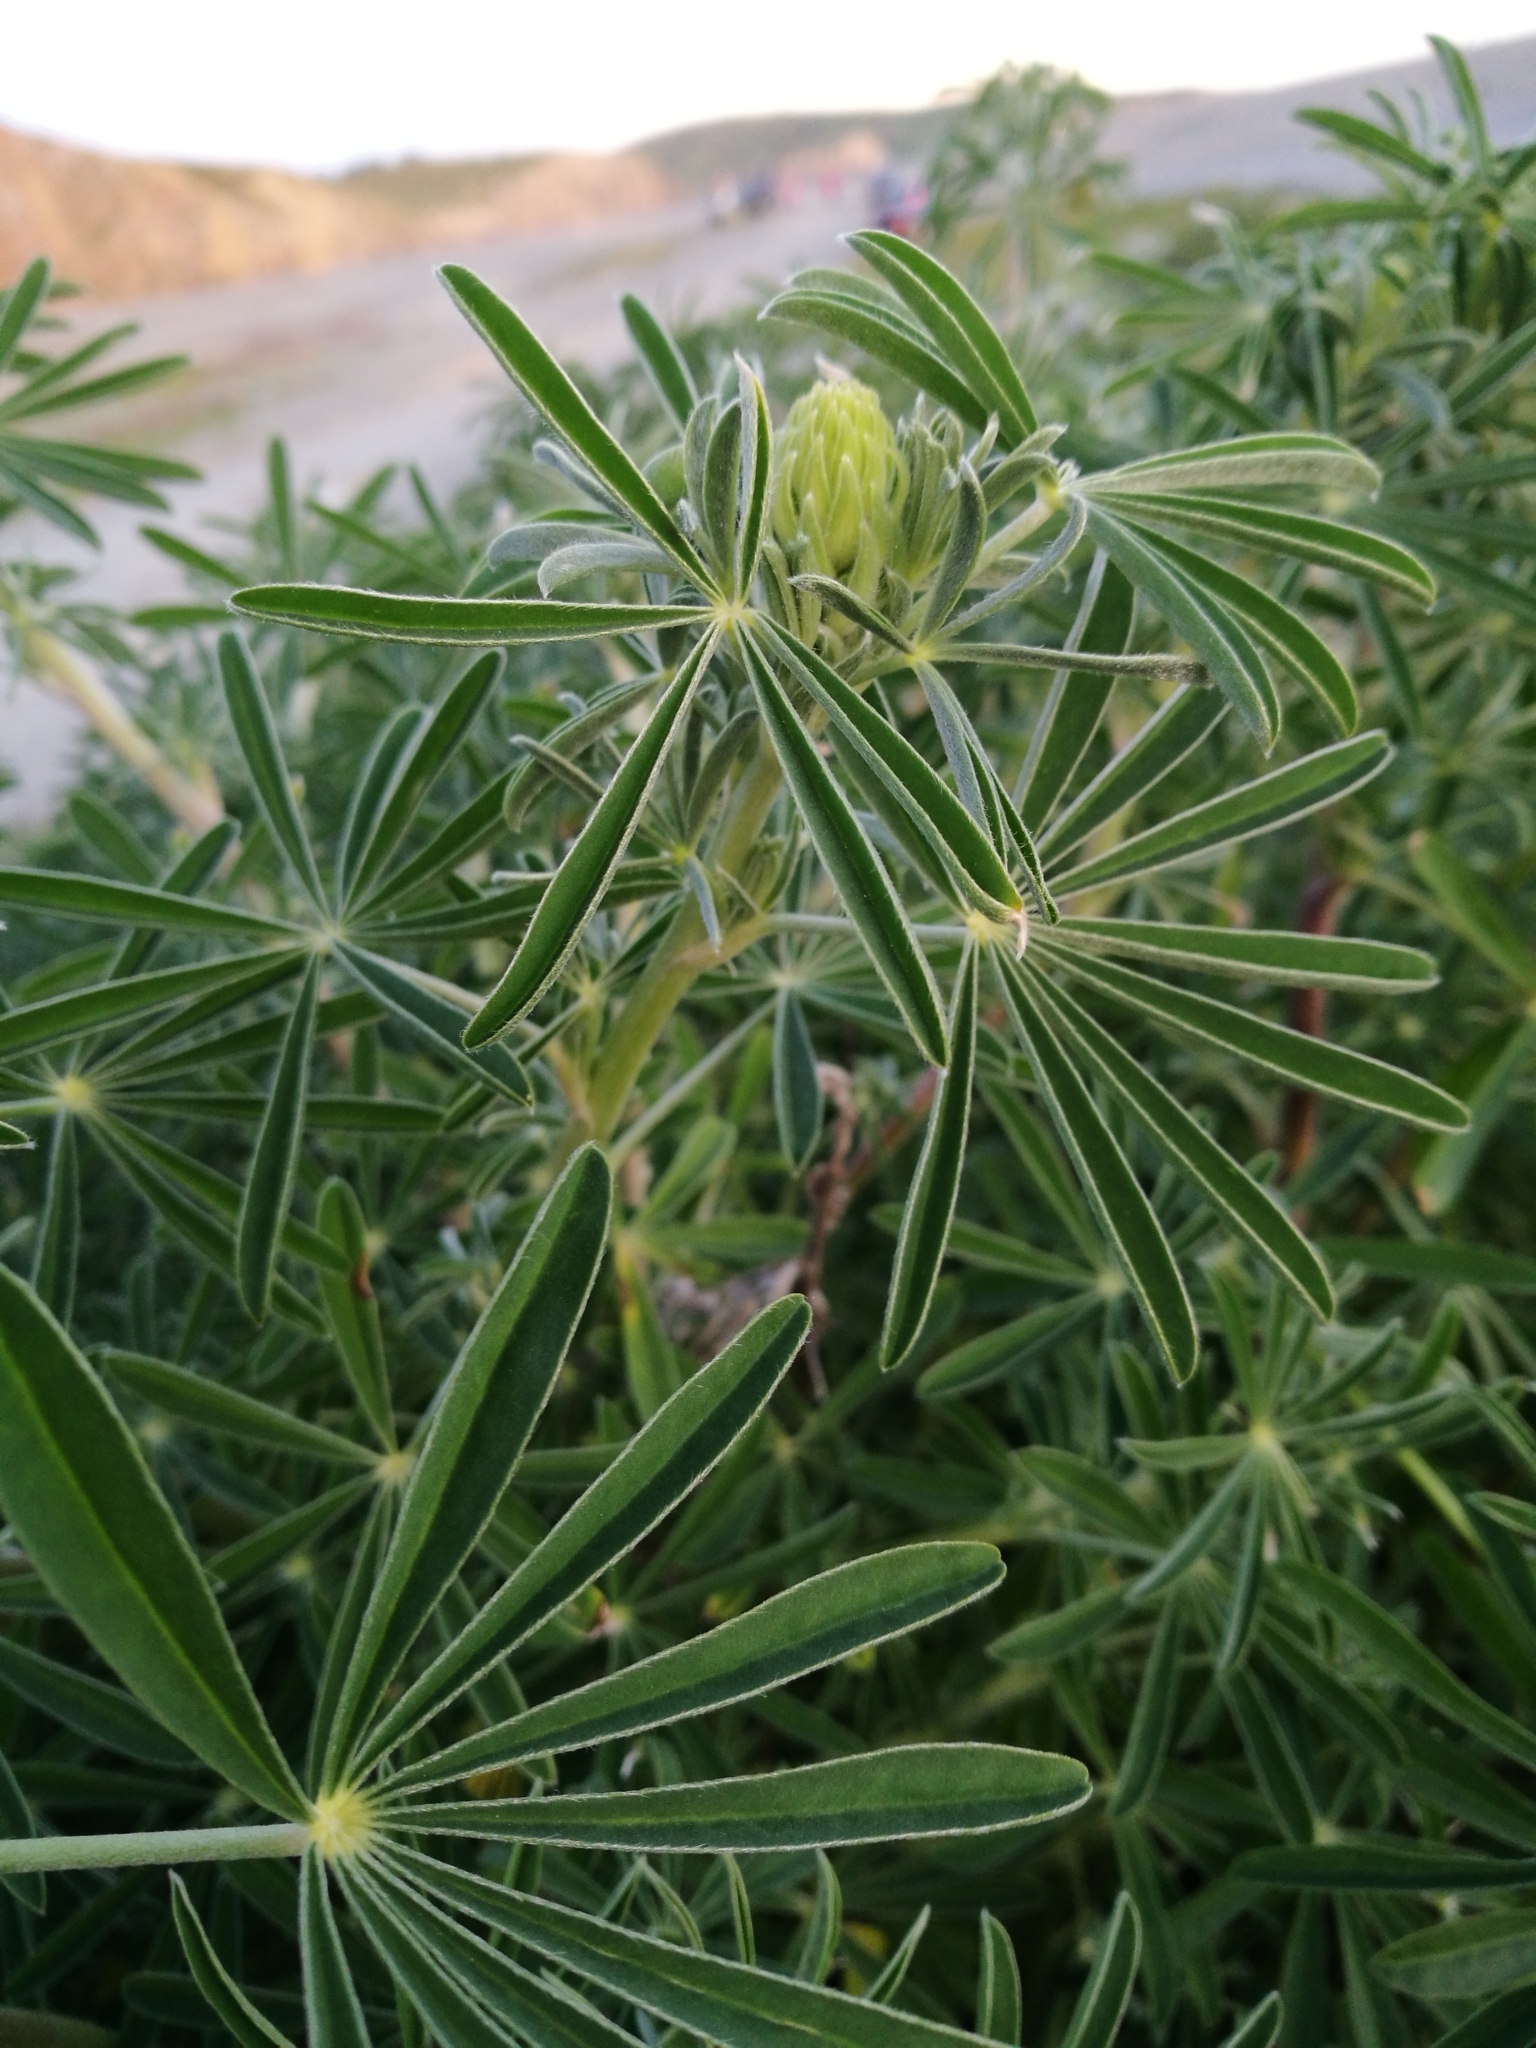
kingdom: Plantae
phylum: Tracheophyta
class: Magnoliopsida
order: Fabales
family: Fabaceae
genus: Lupinus
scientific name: Lupinus arboreus
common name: Yellow bush lupine
